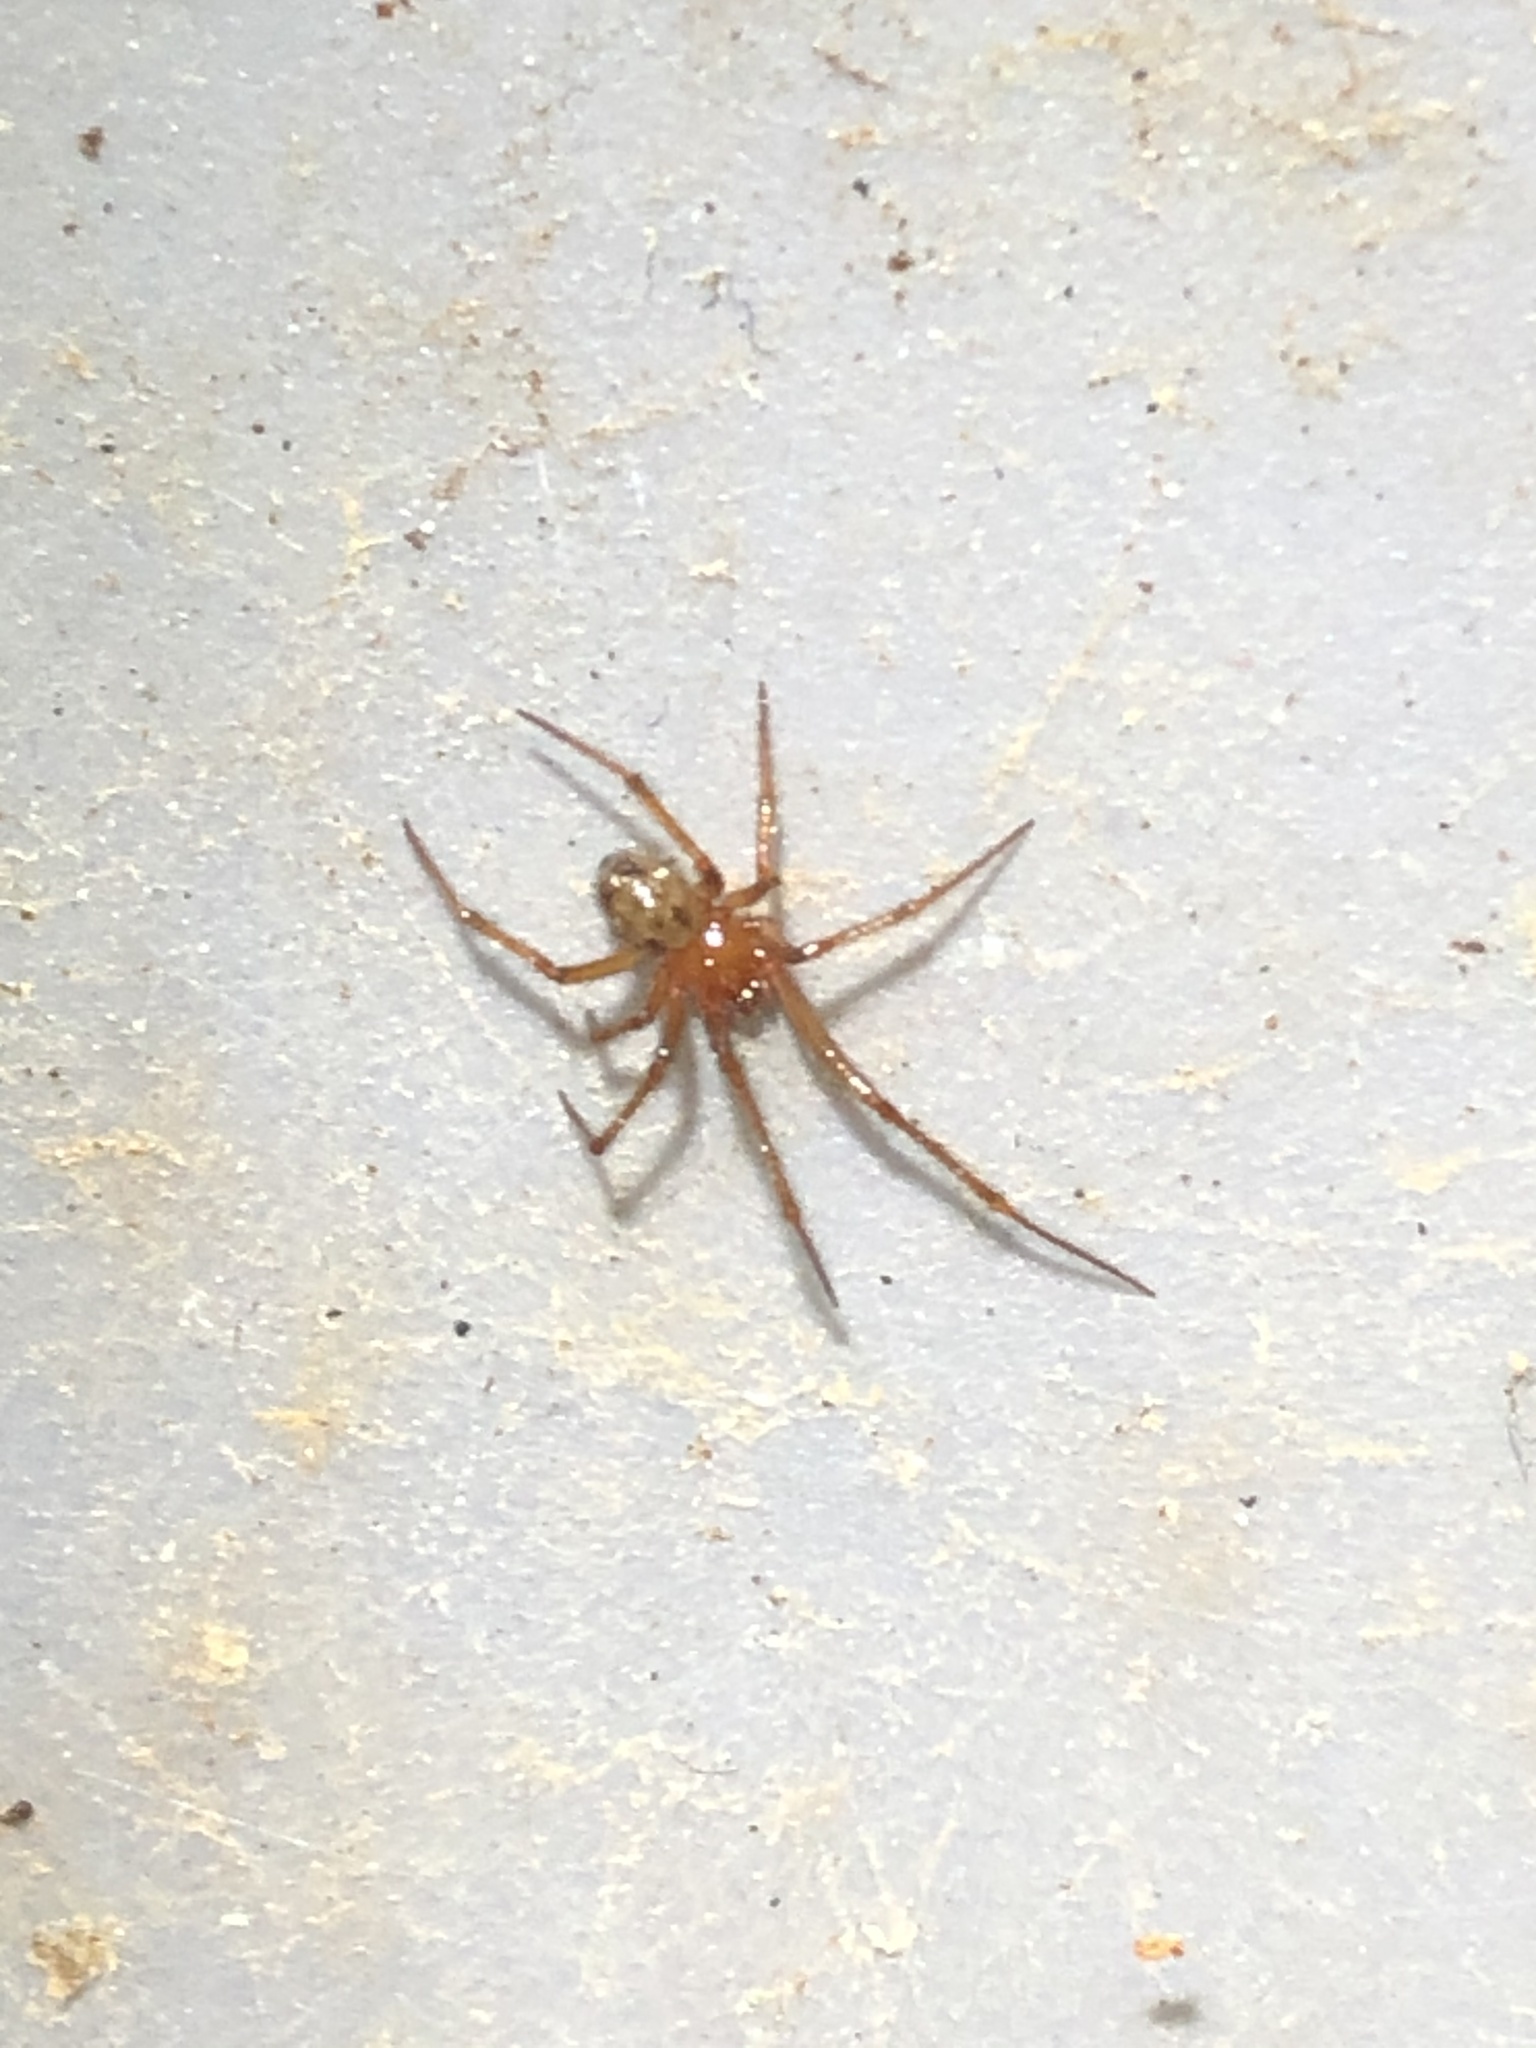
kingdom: Animalia
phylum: Arthropoda
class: Arachnida
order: Araneae
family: Theridiidae
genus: Nesticodes
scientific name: Nesticodes rufipes
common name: Cobweb spiders
